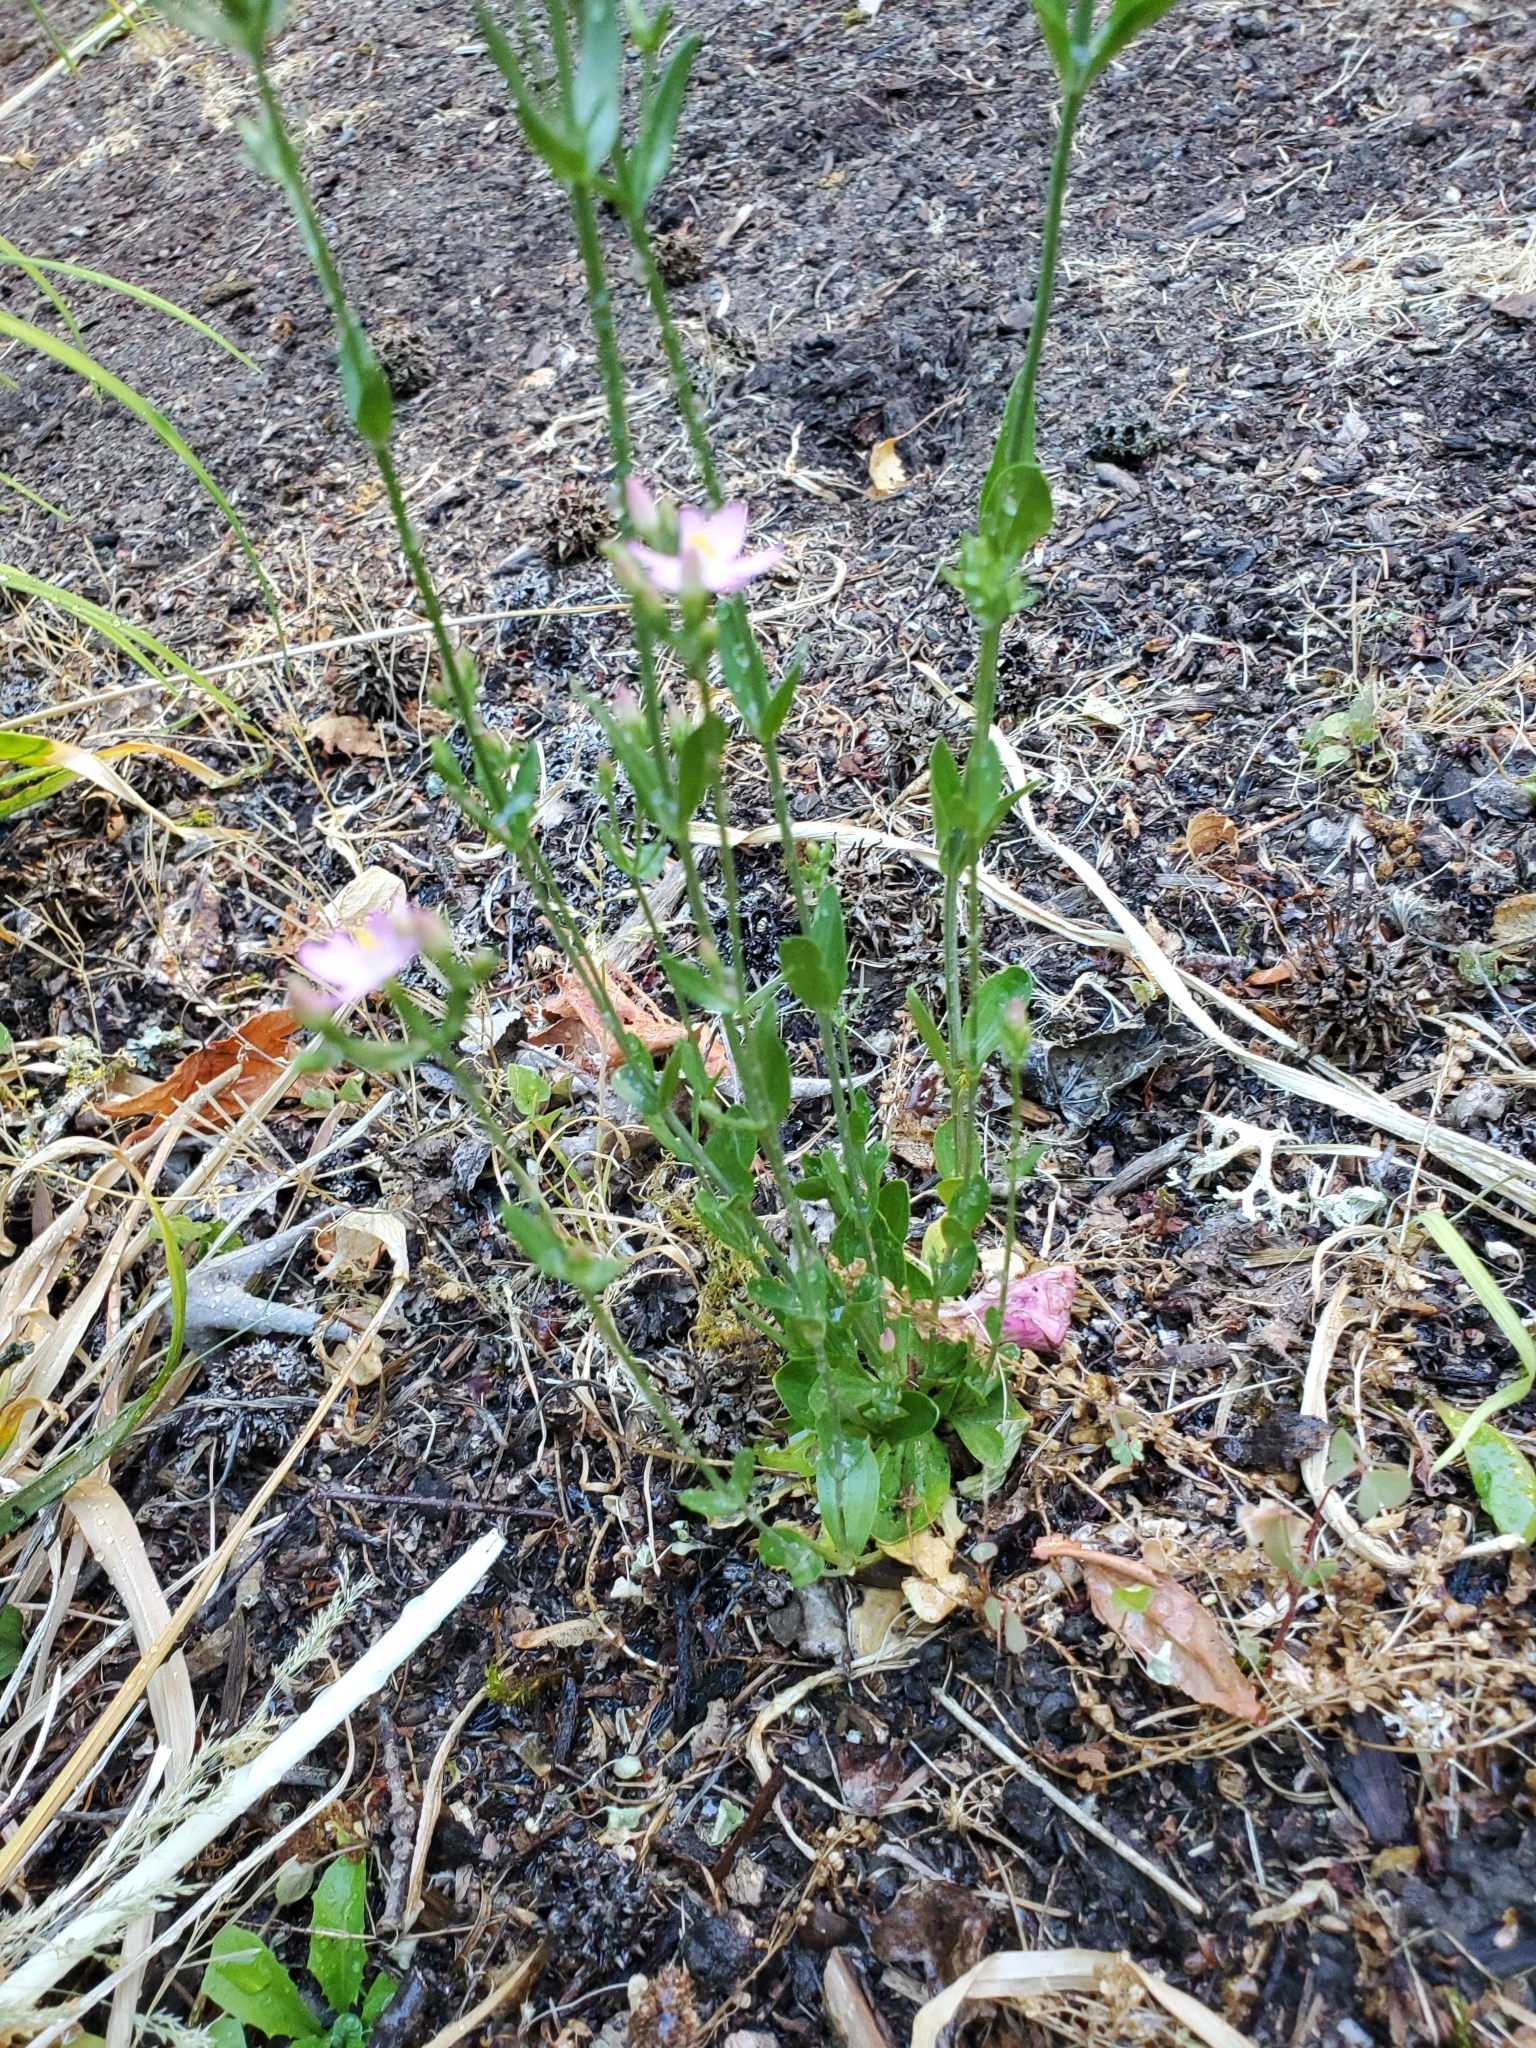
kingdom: Plantae
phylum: Tracheophyta
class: Magnoliopsida
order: Gentianales
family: Gentianaceae
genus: Centaurium
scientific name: Centaurium erythraea
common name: Common centaury
